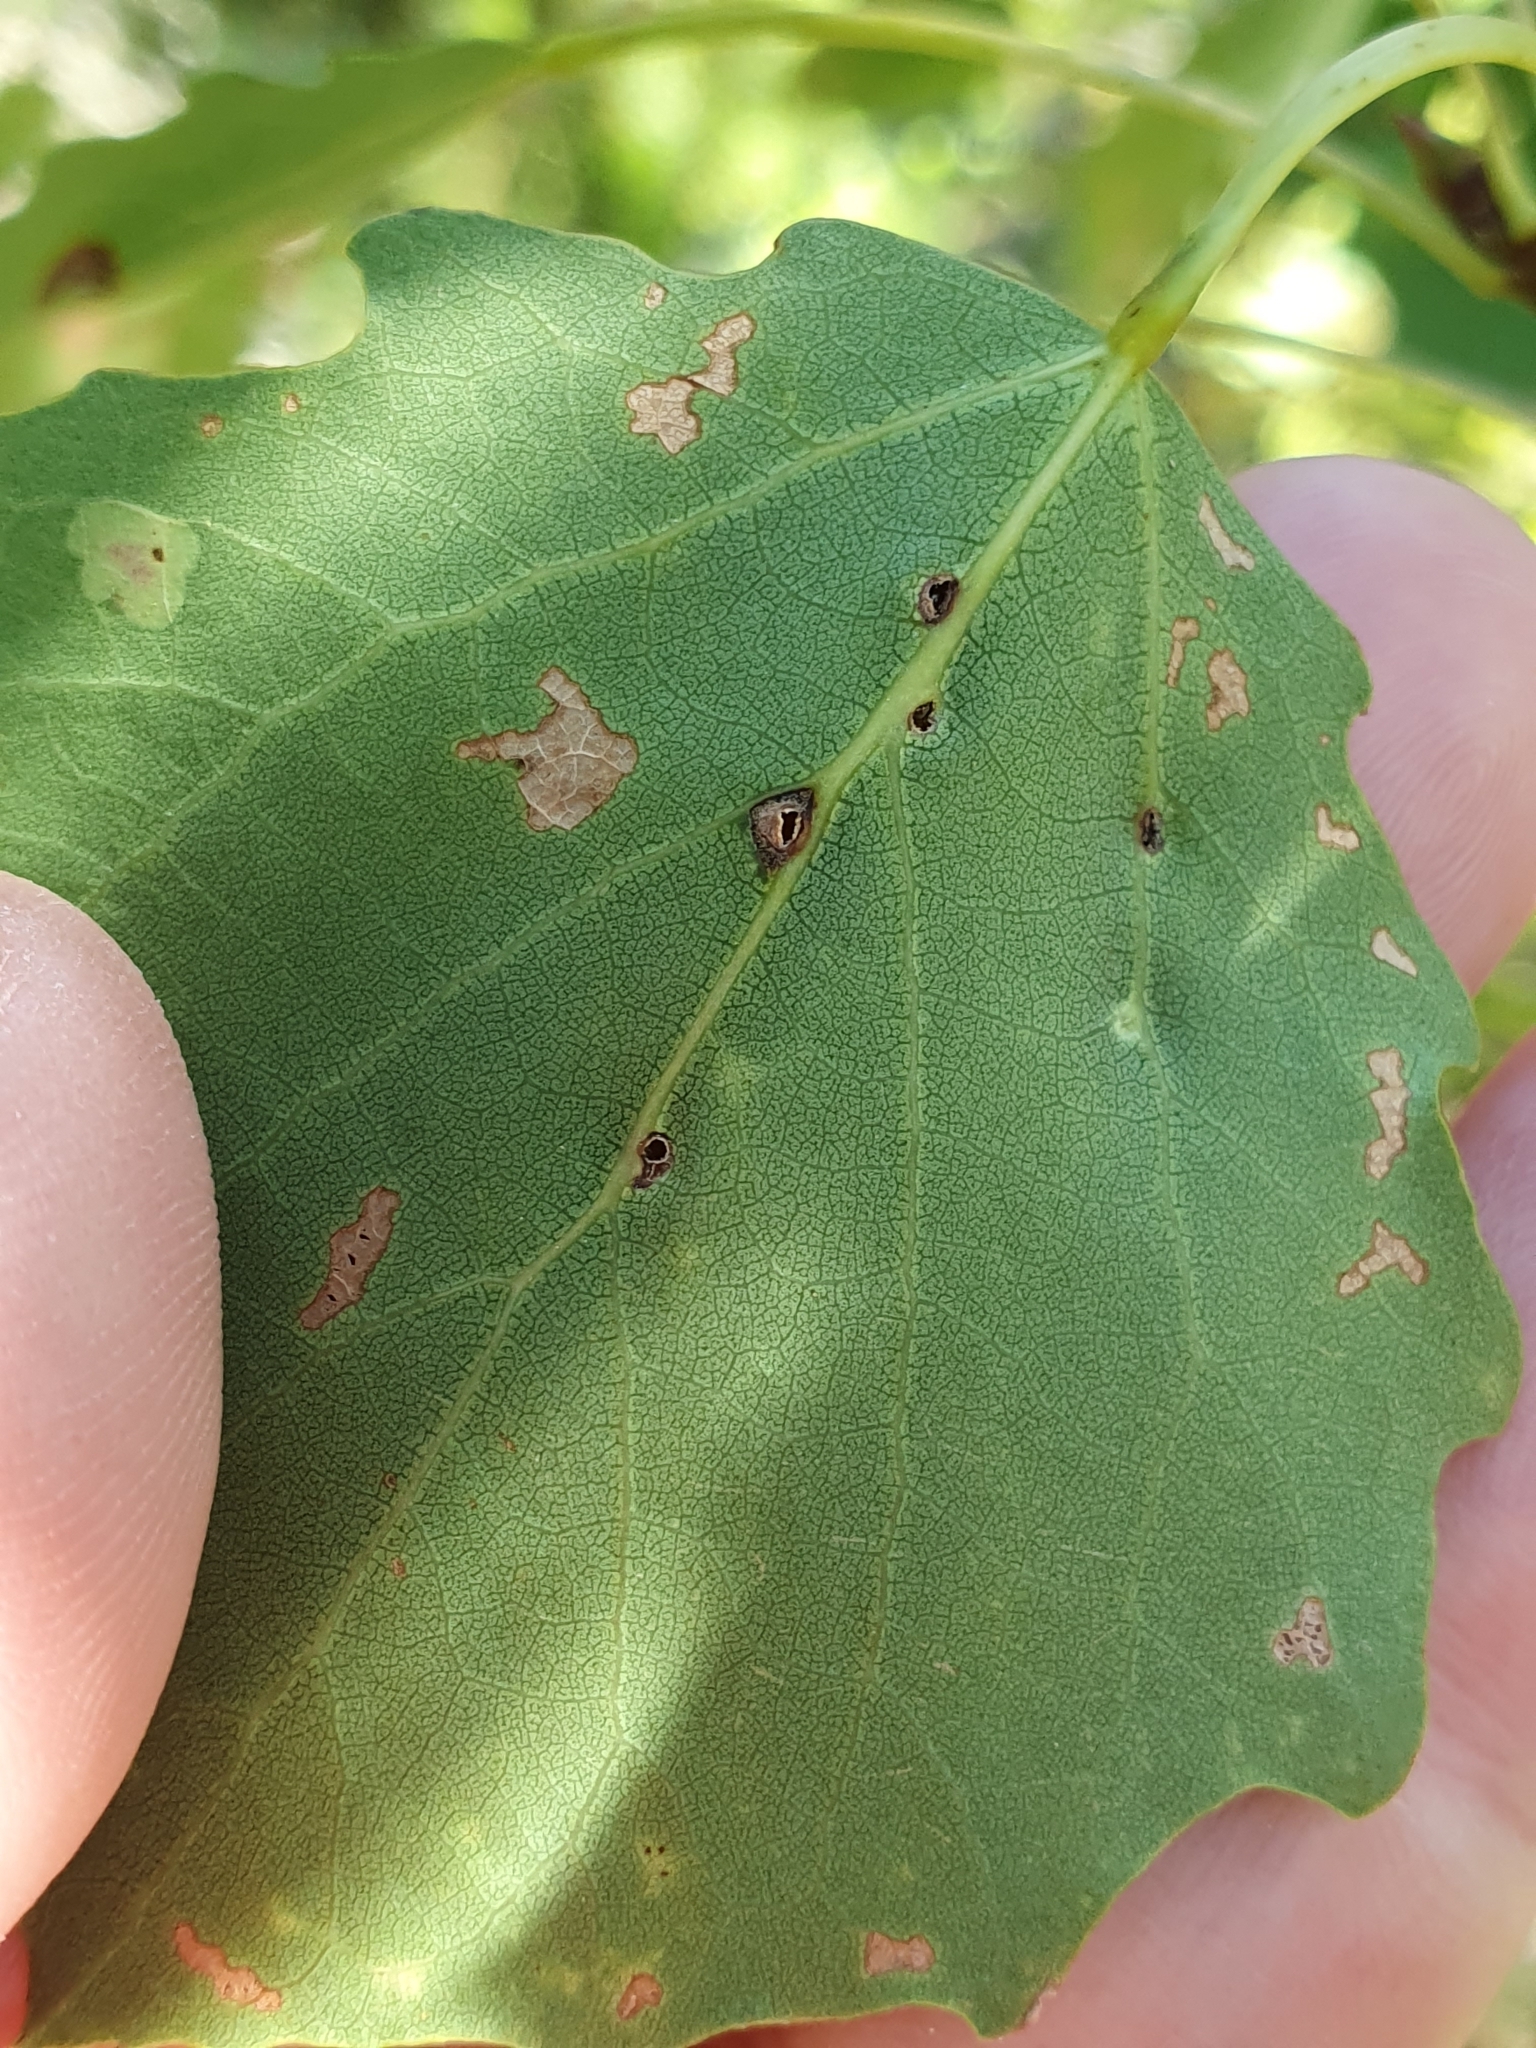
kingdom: Animalia
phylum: Arthropoda
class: Insecta
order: Diptera
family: Cecidomyiidae
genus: Harmandiola
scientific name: Harmandiola globuli
